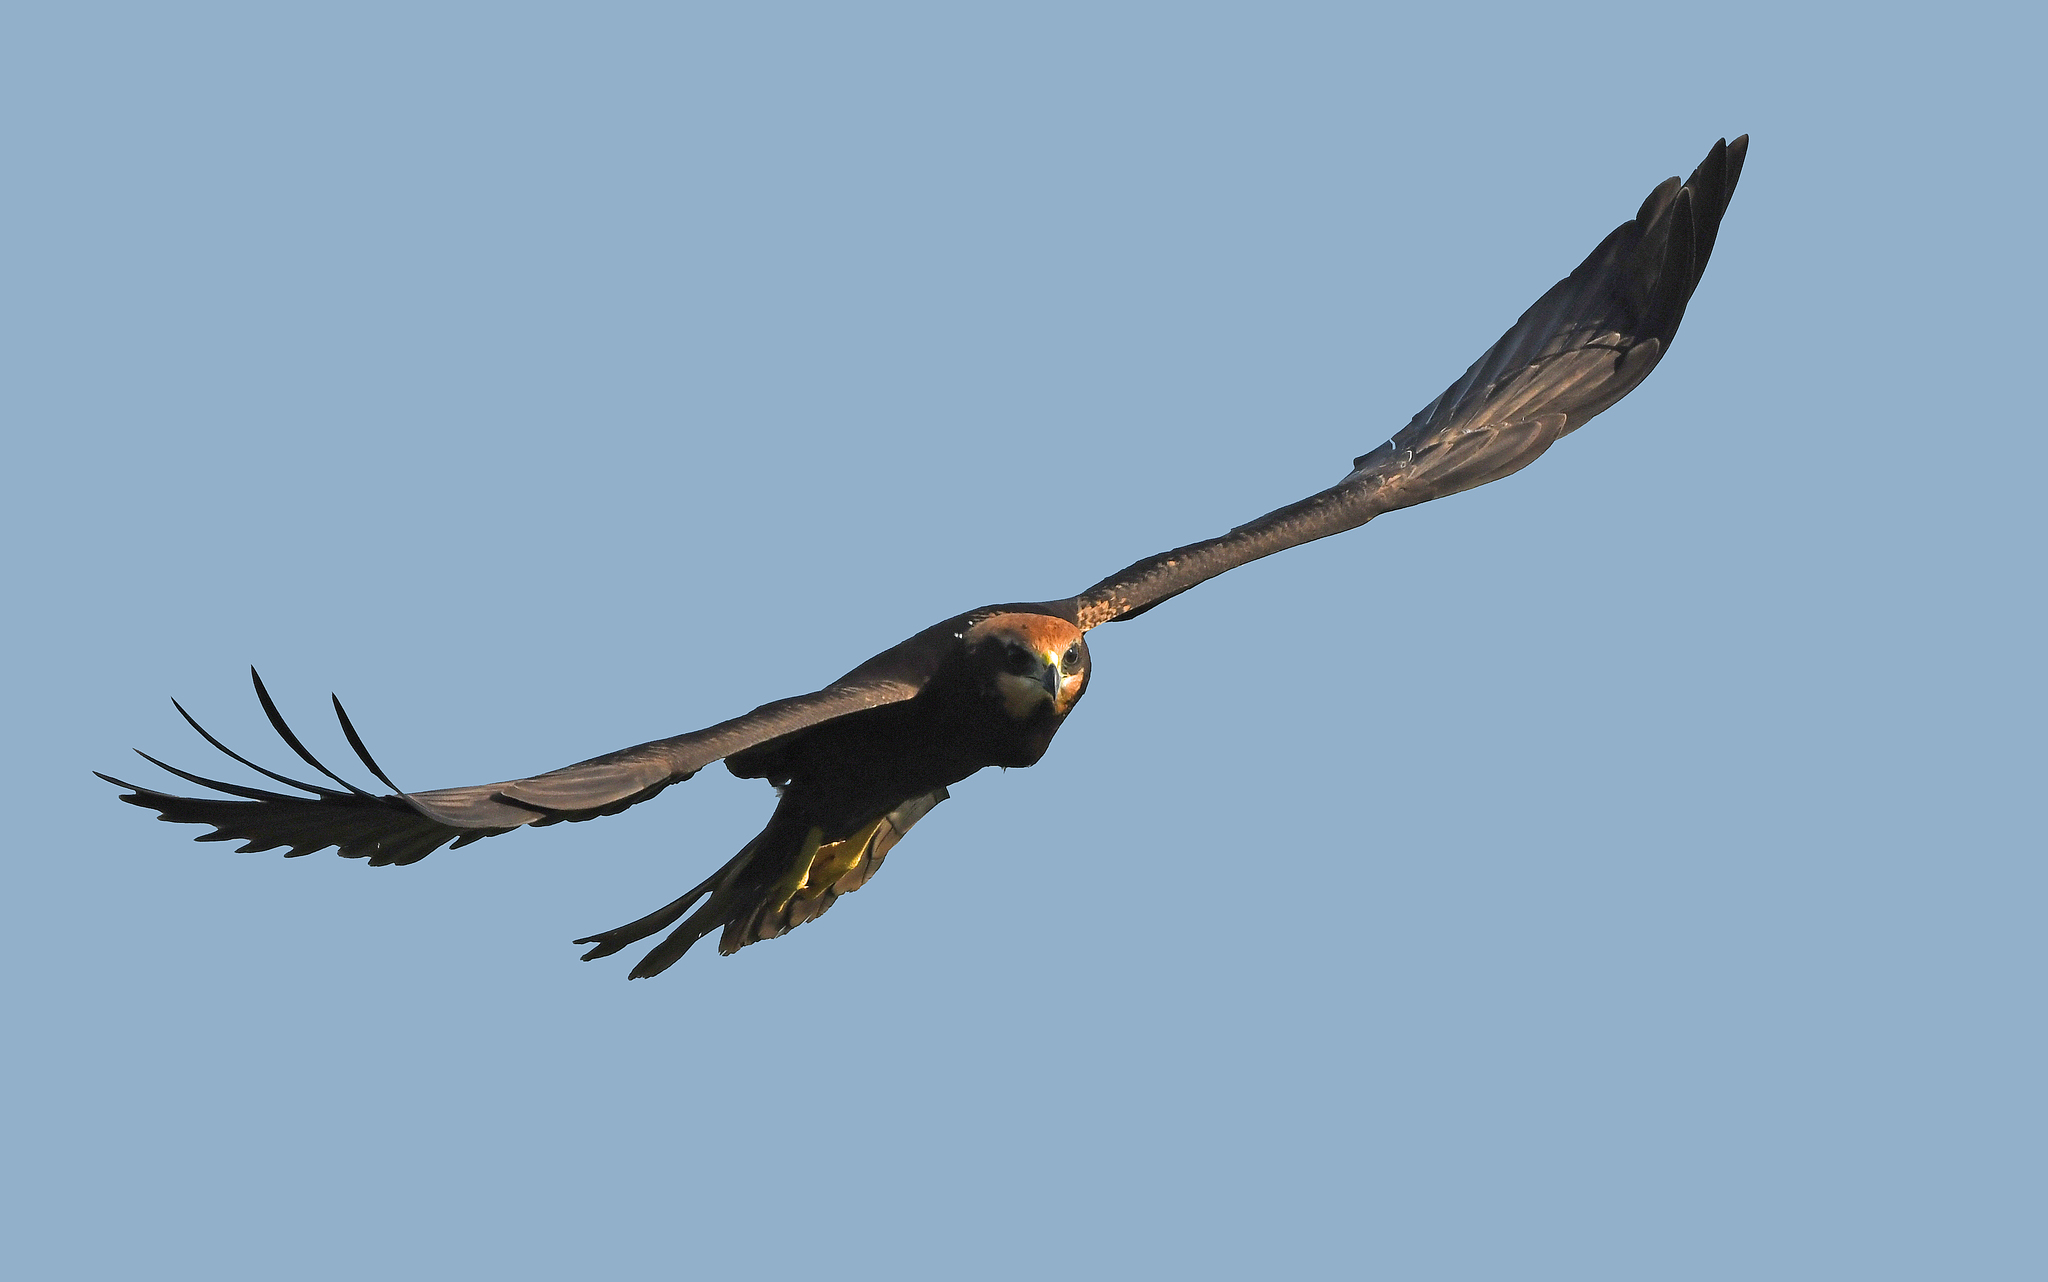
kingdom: Animalia
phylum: Chordata
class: Aves
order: Accipitriformes
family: Accipitridae
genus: Circus
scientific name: Circus aeruginosus
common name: Western marsh harrier
